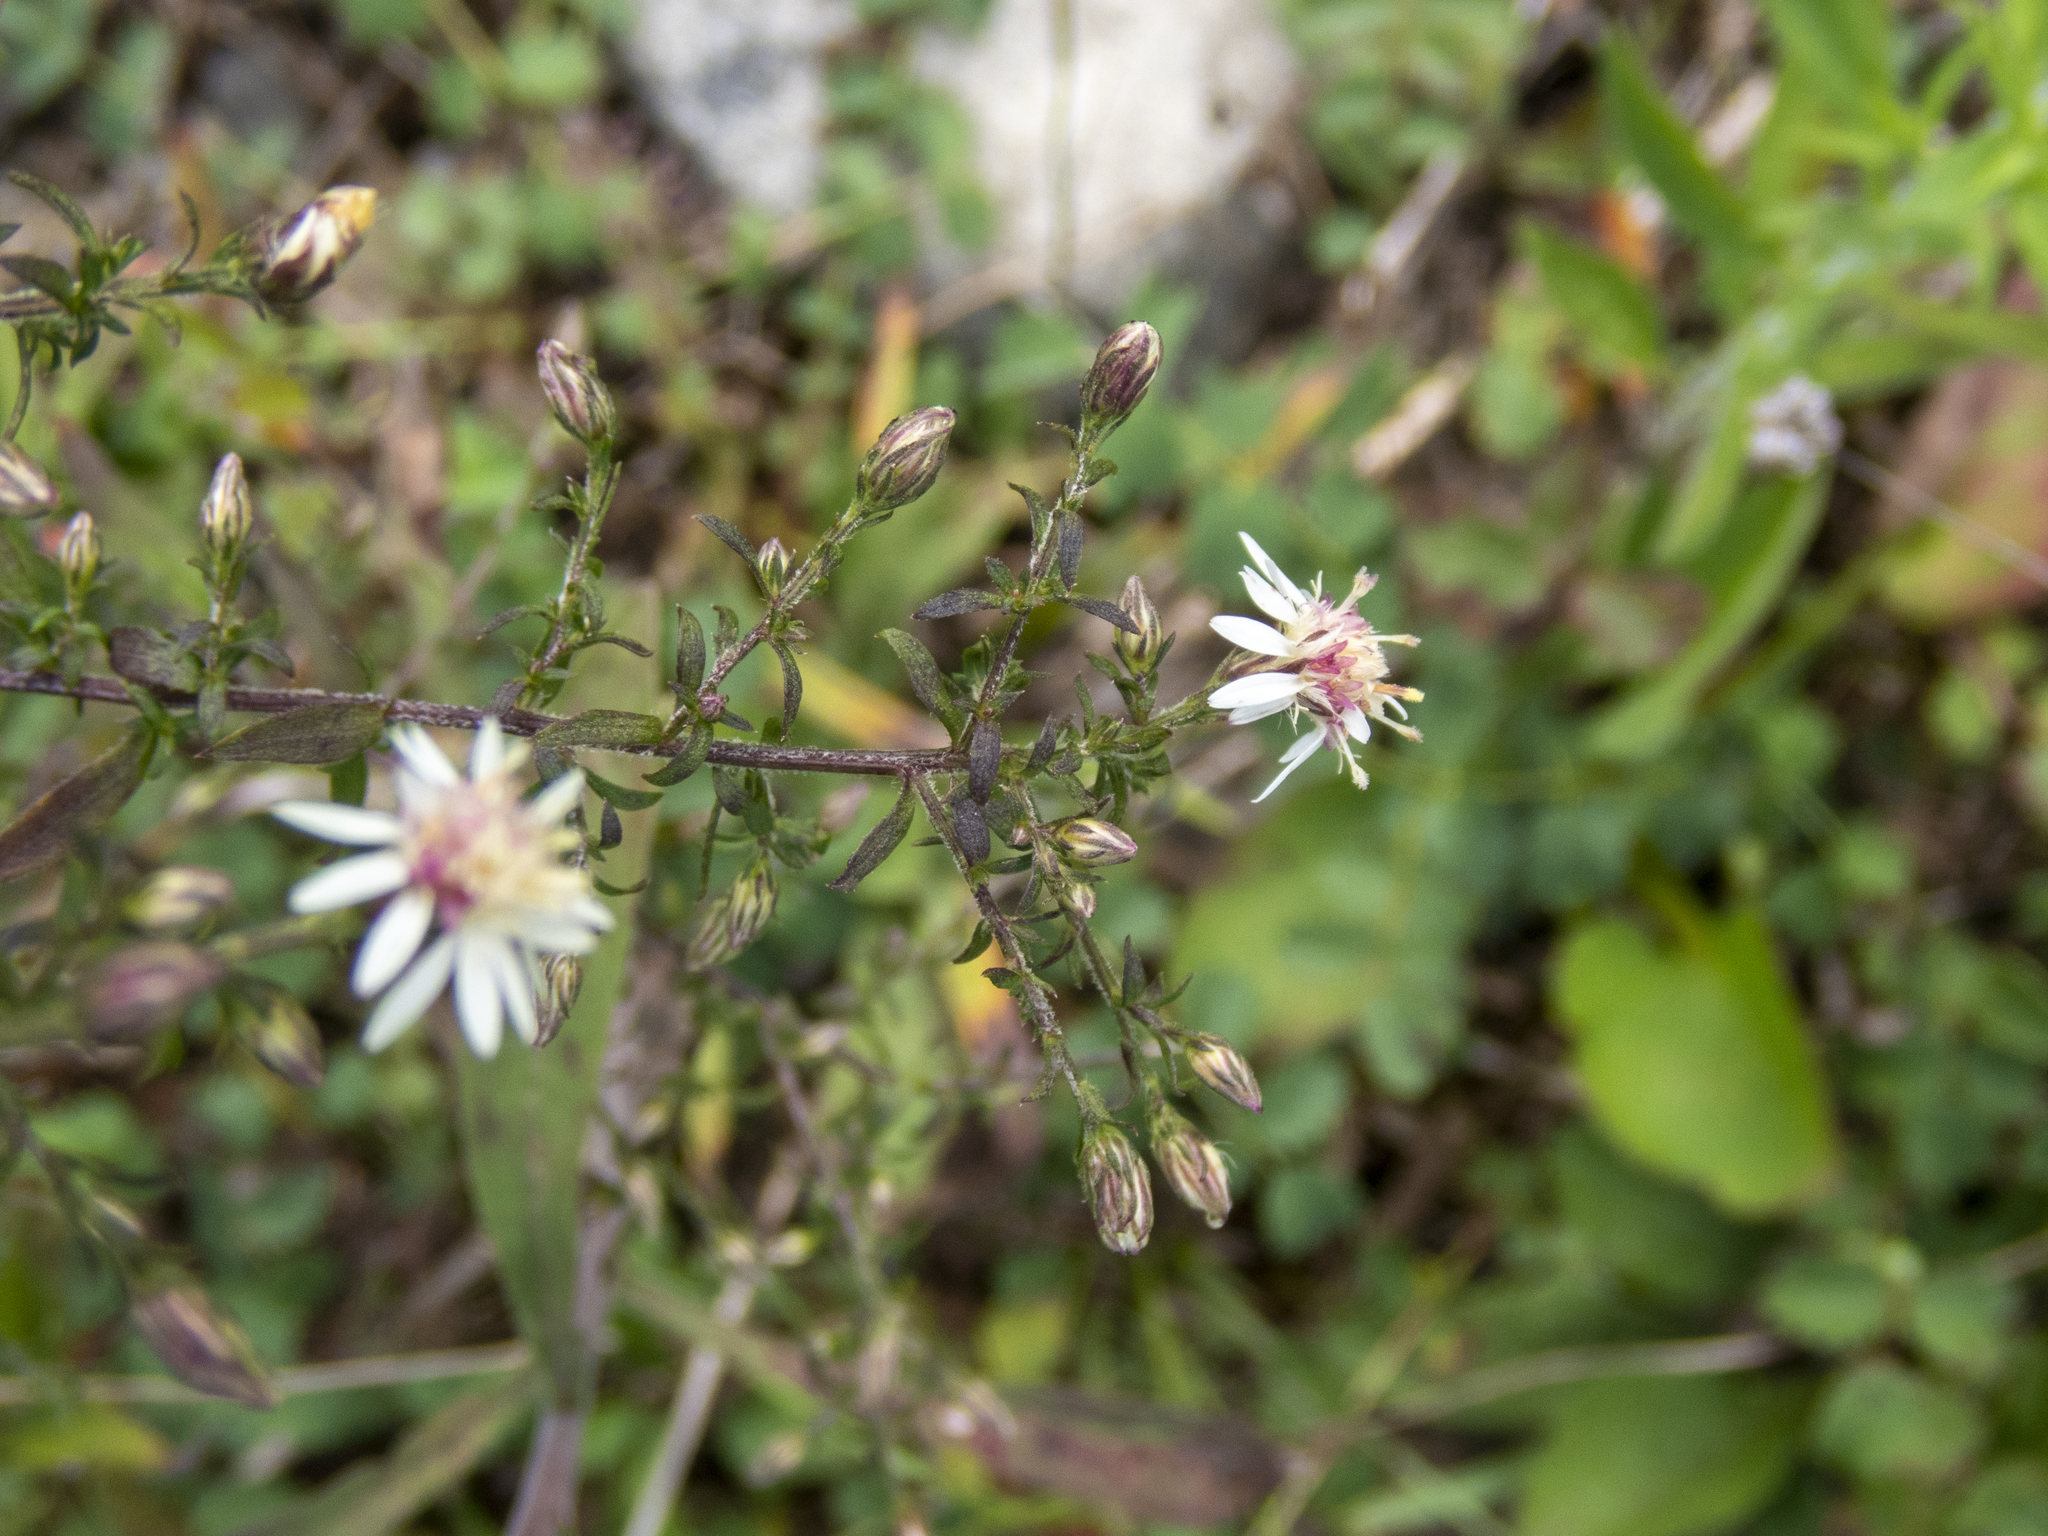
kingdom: Plantae
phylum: Tracheophyta
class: Magnoliopsida
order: Asterales
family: Asteraceae
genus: Symphyotrichum
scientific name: Symphyotrichum lateriflorum
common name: Calico aster
